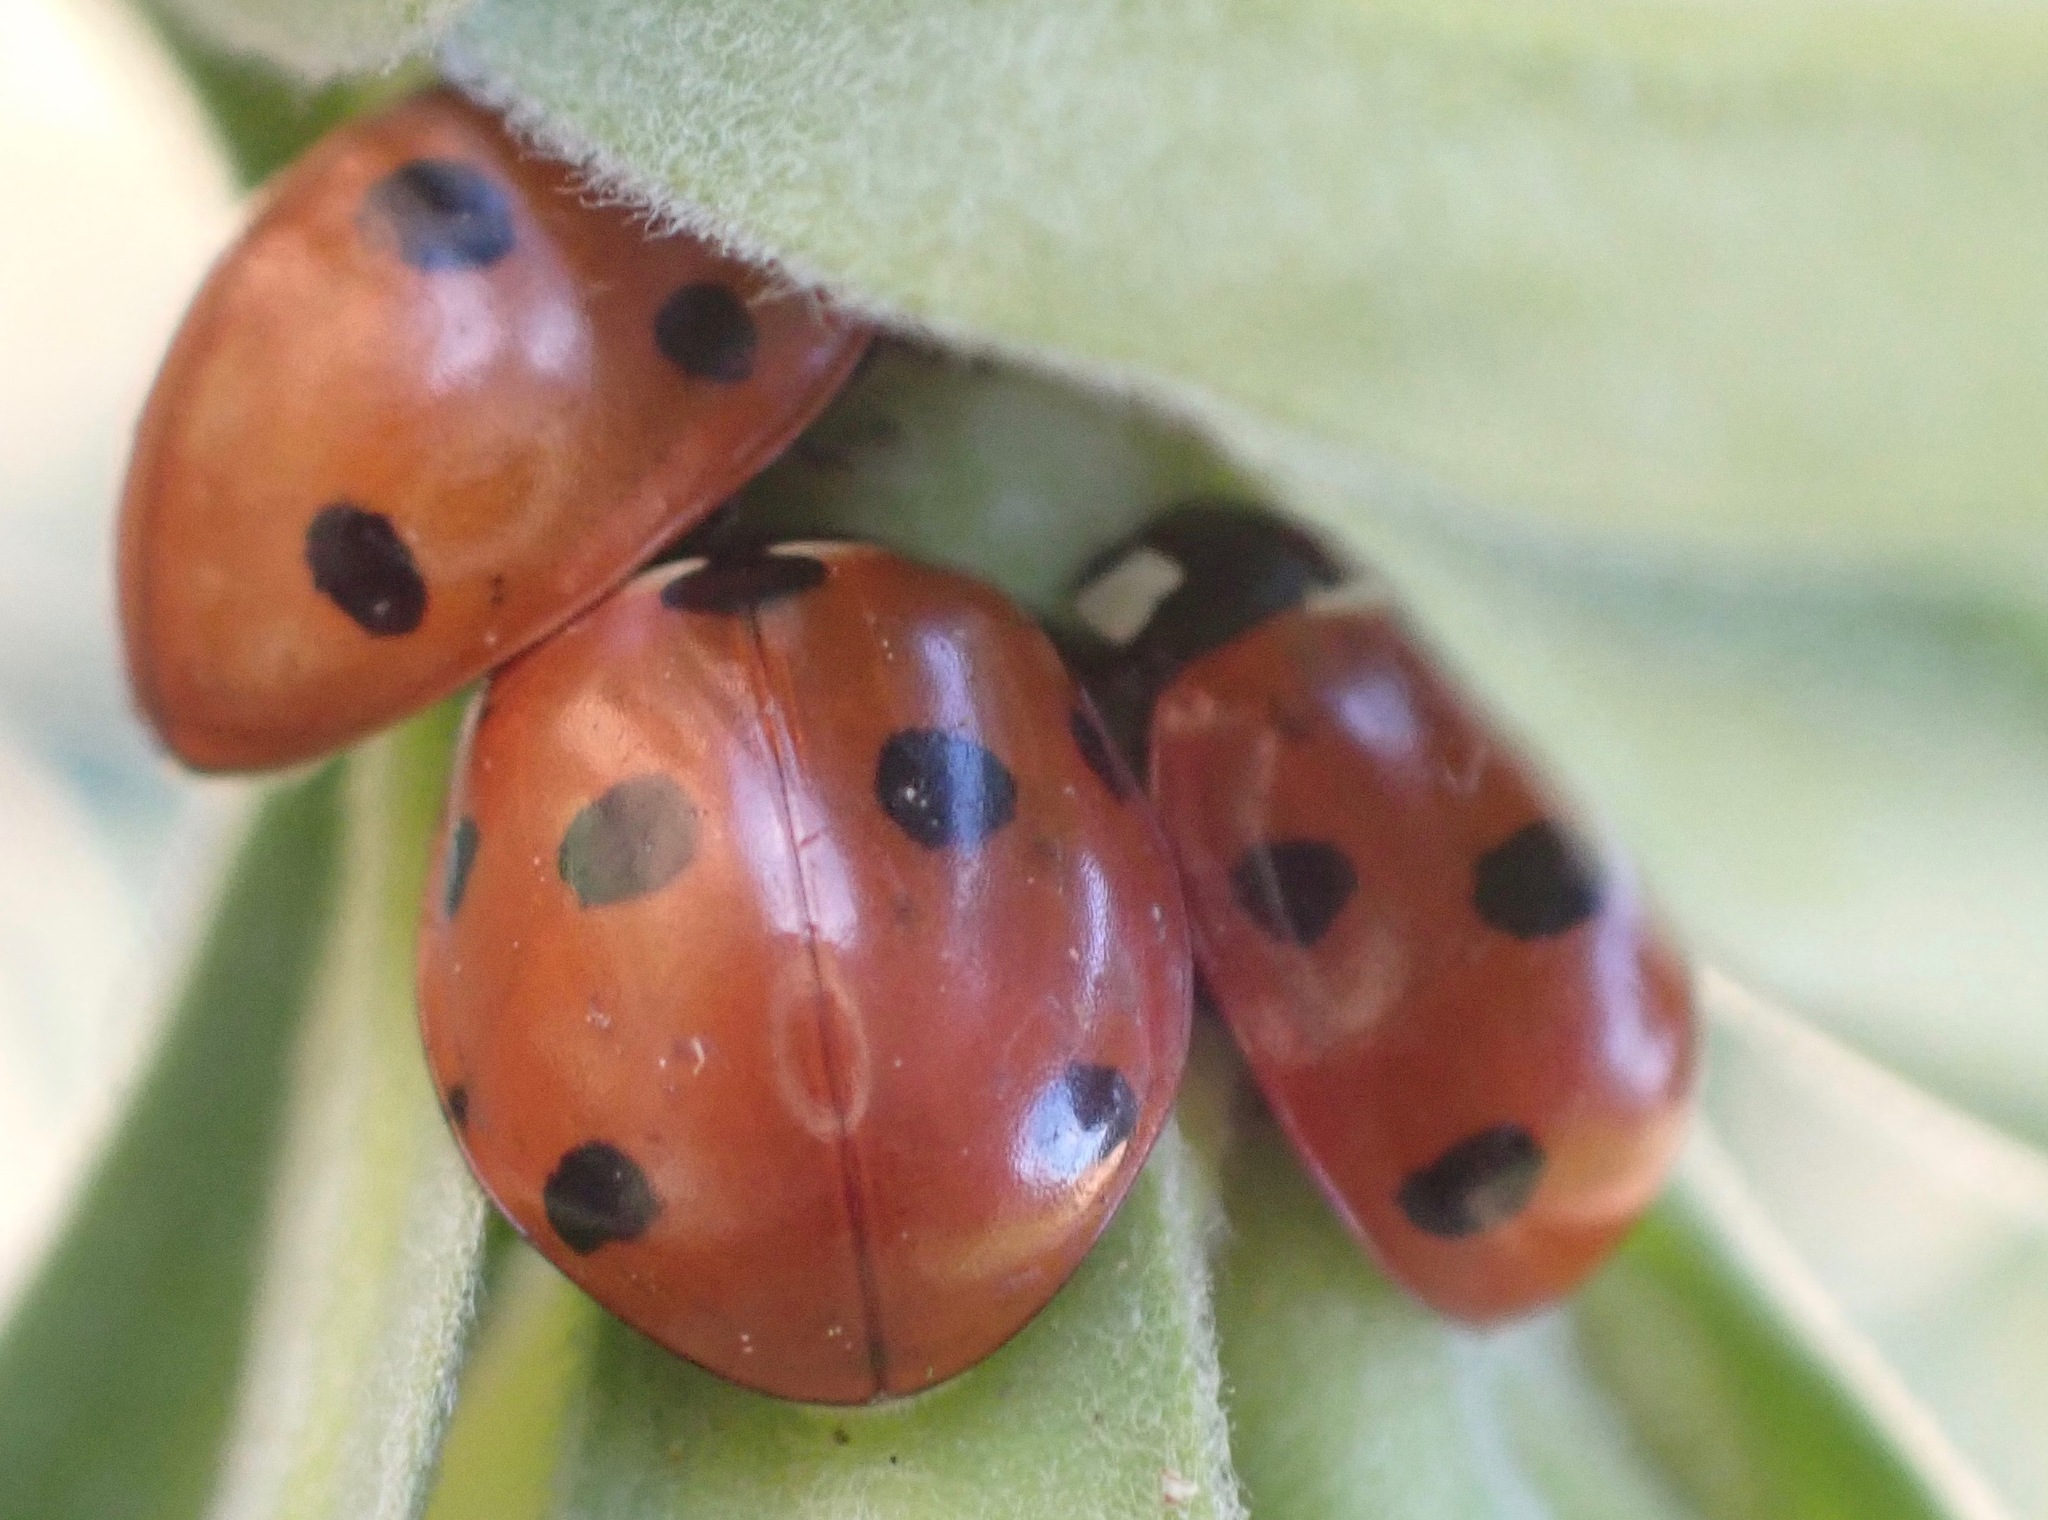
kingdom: Animalia
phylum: Arthropoda
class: Insecta
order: Coleoptera
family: Coccinellidae
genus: Coccinella
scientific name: Coccinella septempunctata
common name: Sevenspotted lady beetle
